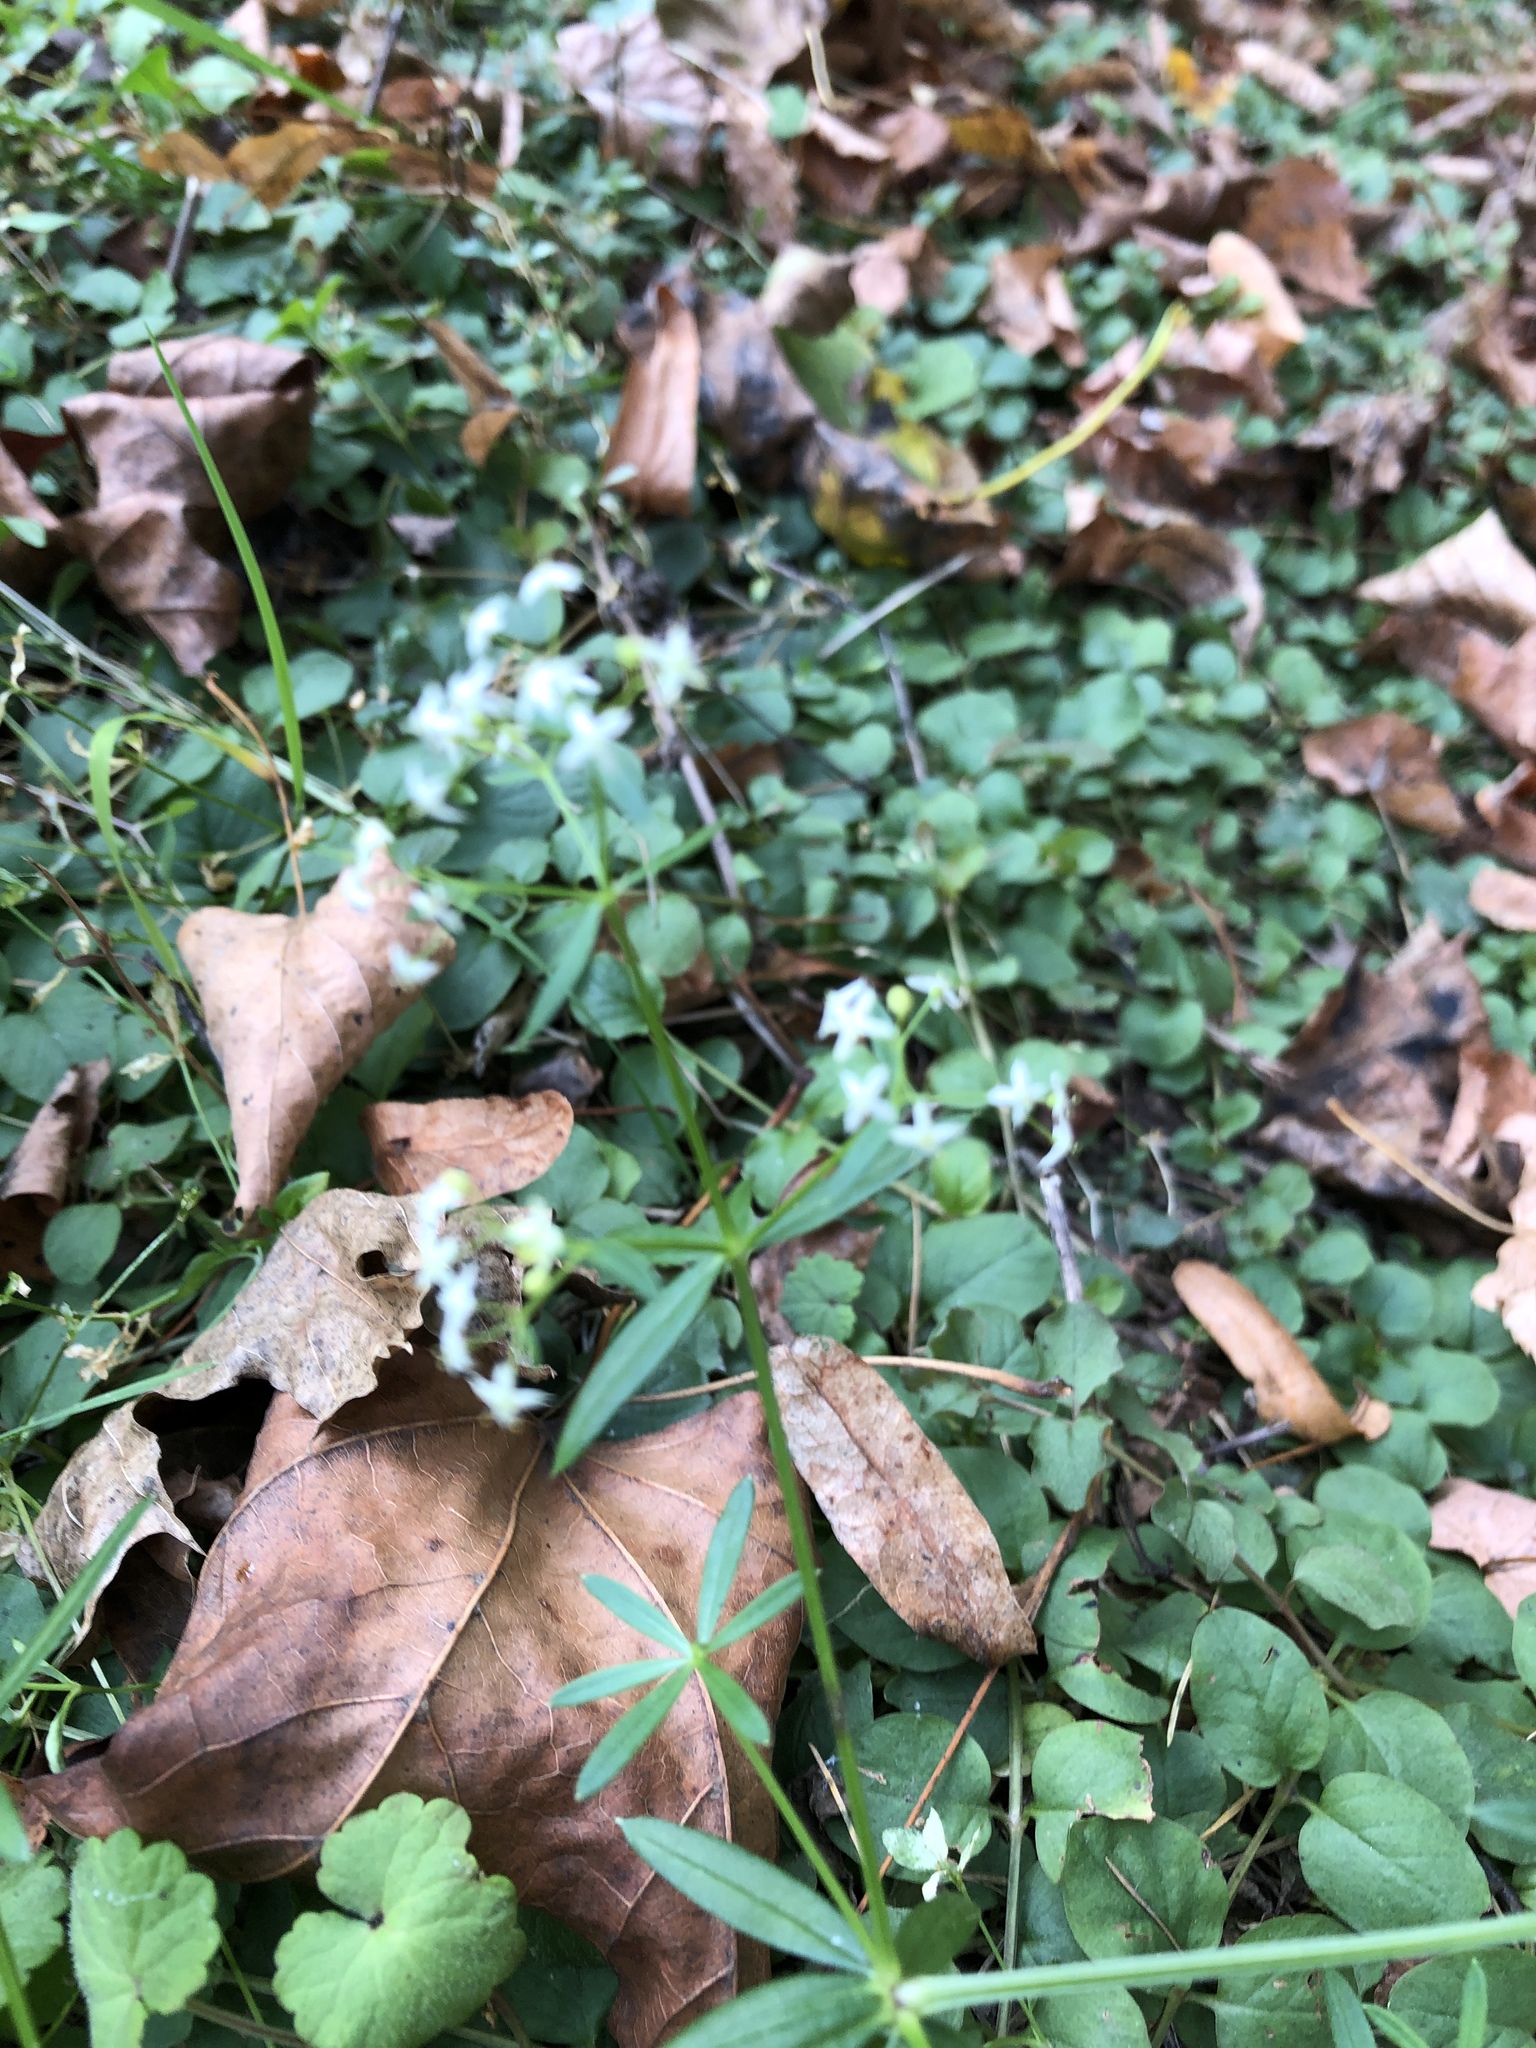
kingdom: Plantae
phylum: Tracheophyta
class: Magnoliopsida
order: Gentianales
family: Rubiaceae
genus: Galium
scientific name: Galium mollugo
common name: Hedge bedstraw
